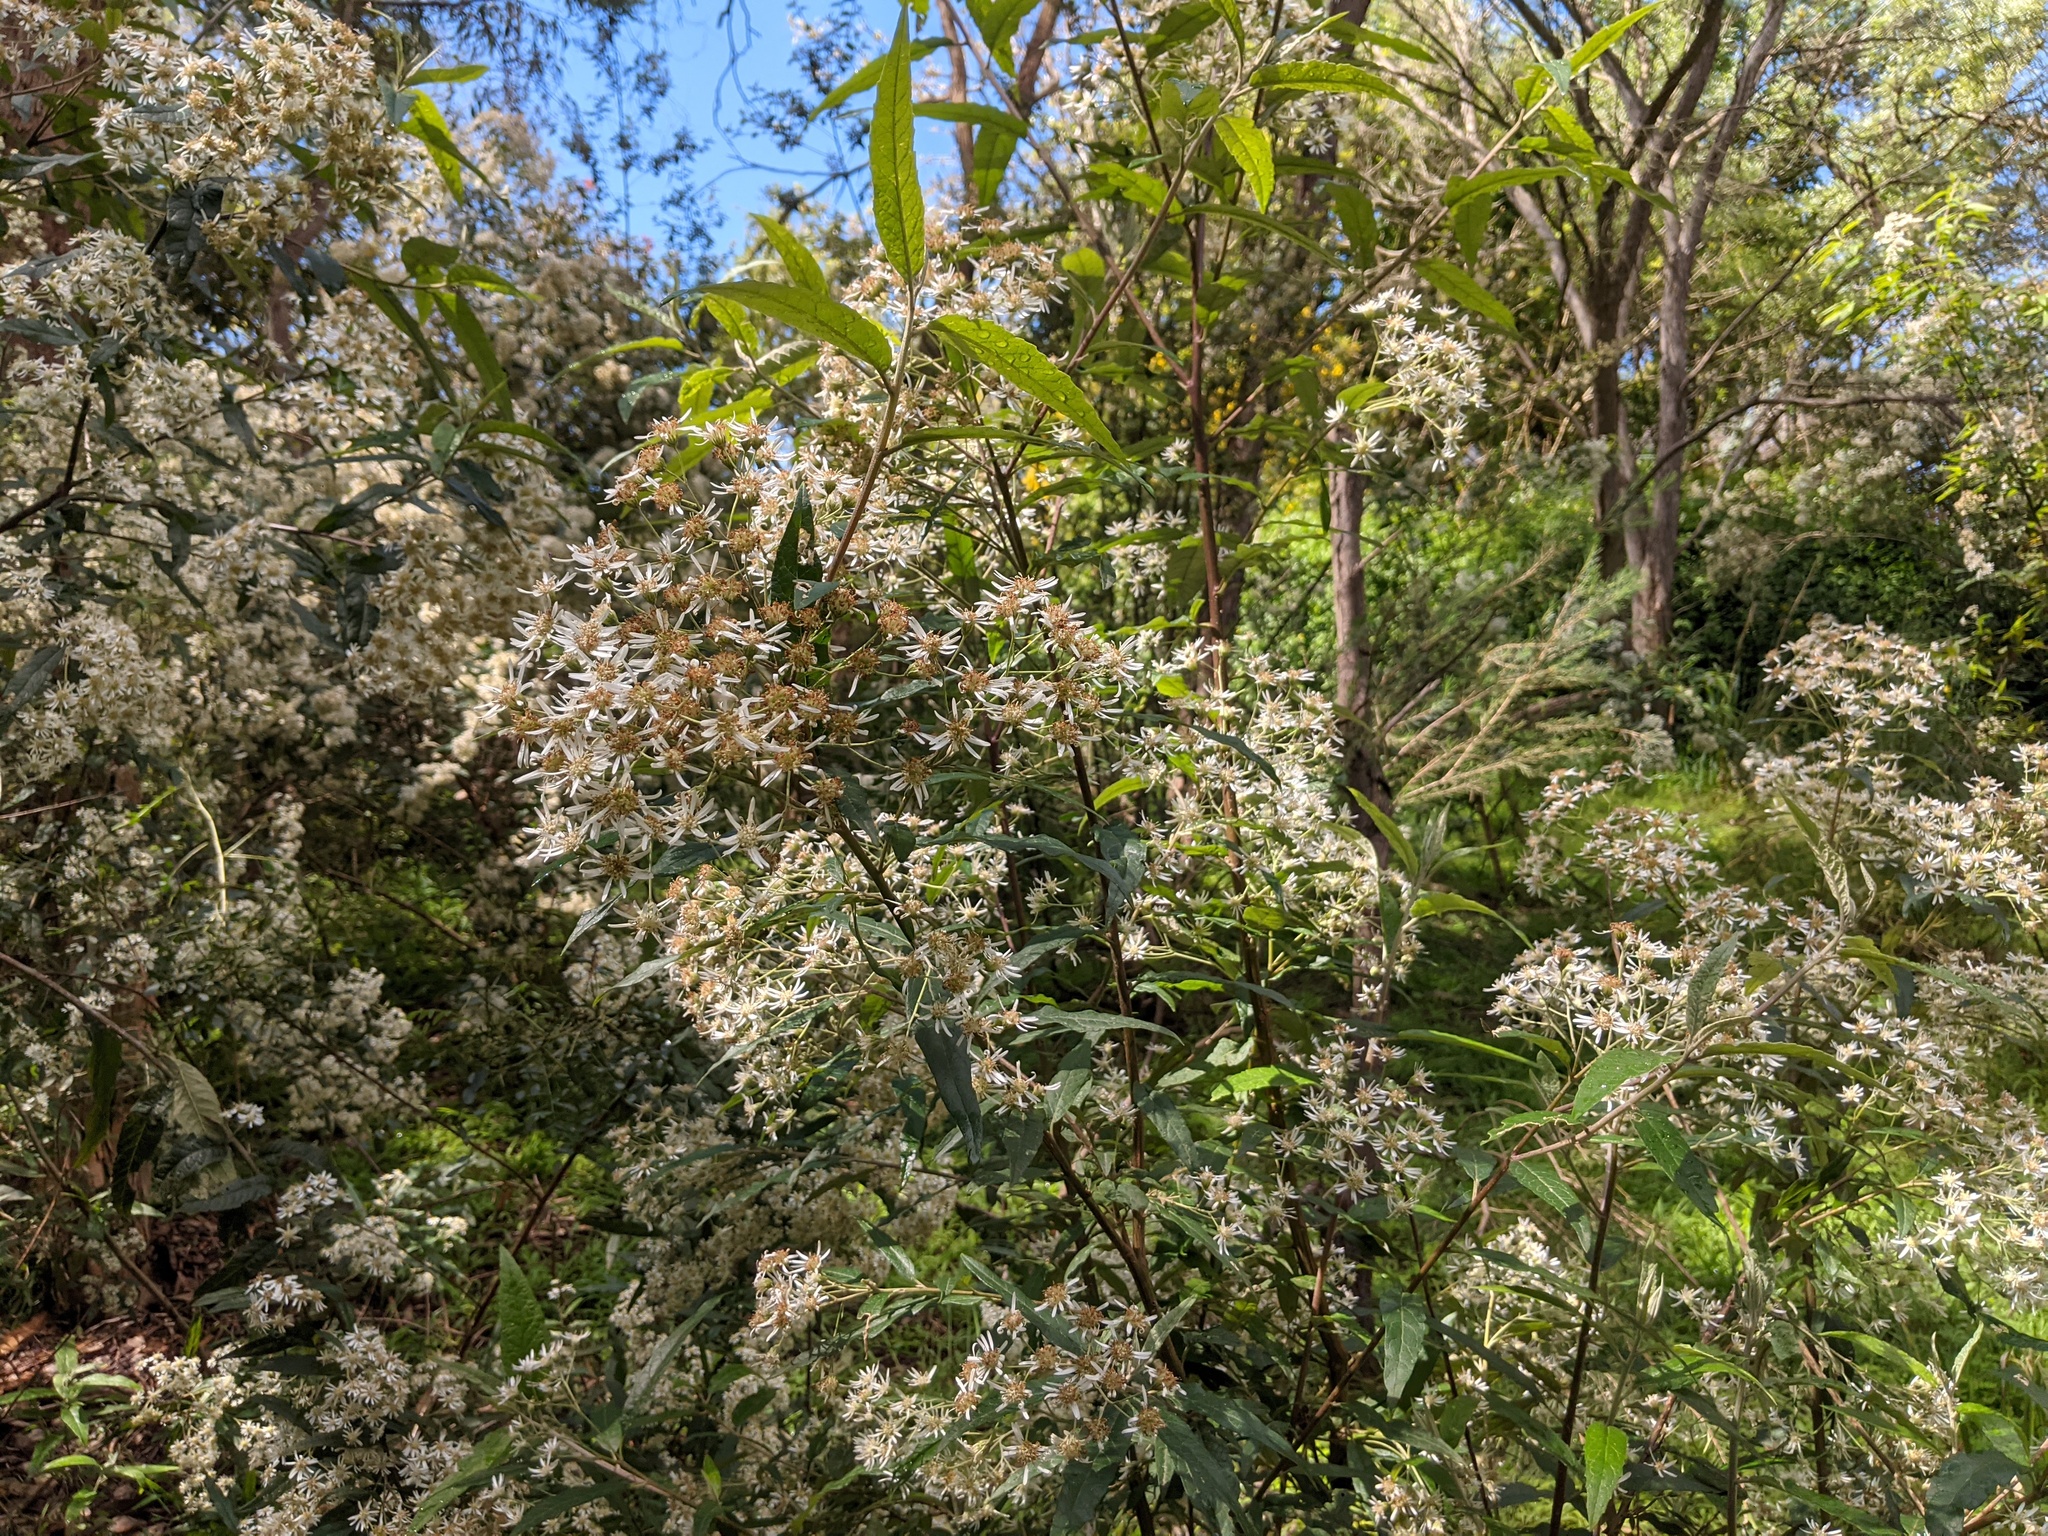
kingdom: Plantae
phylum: Tracheophyta
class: Magnoliopsida
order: Asterales
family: Asteraceae
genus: Olearia
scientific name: Olearia lirata
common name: Dusty daisybush
